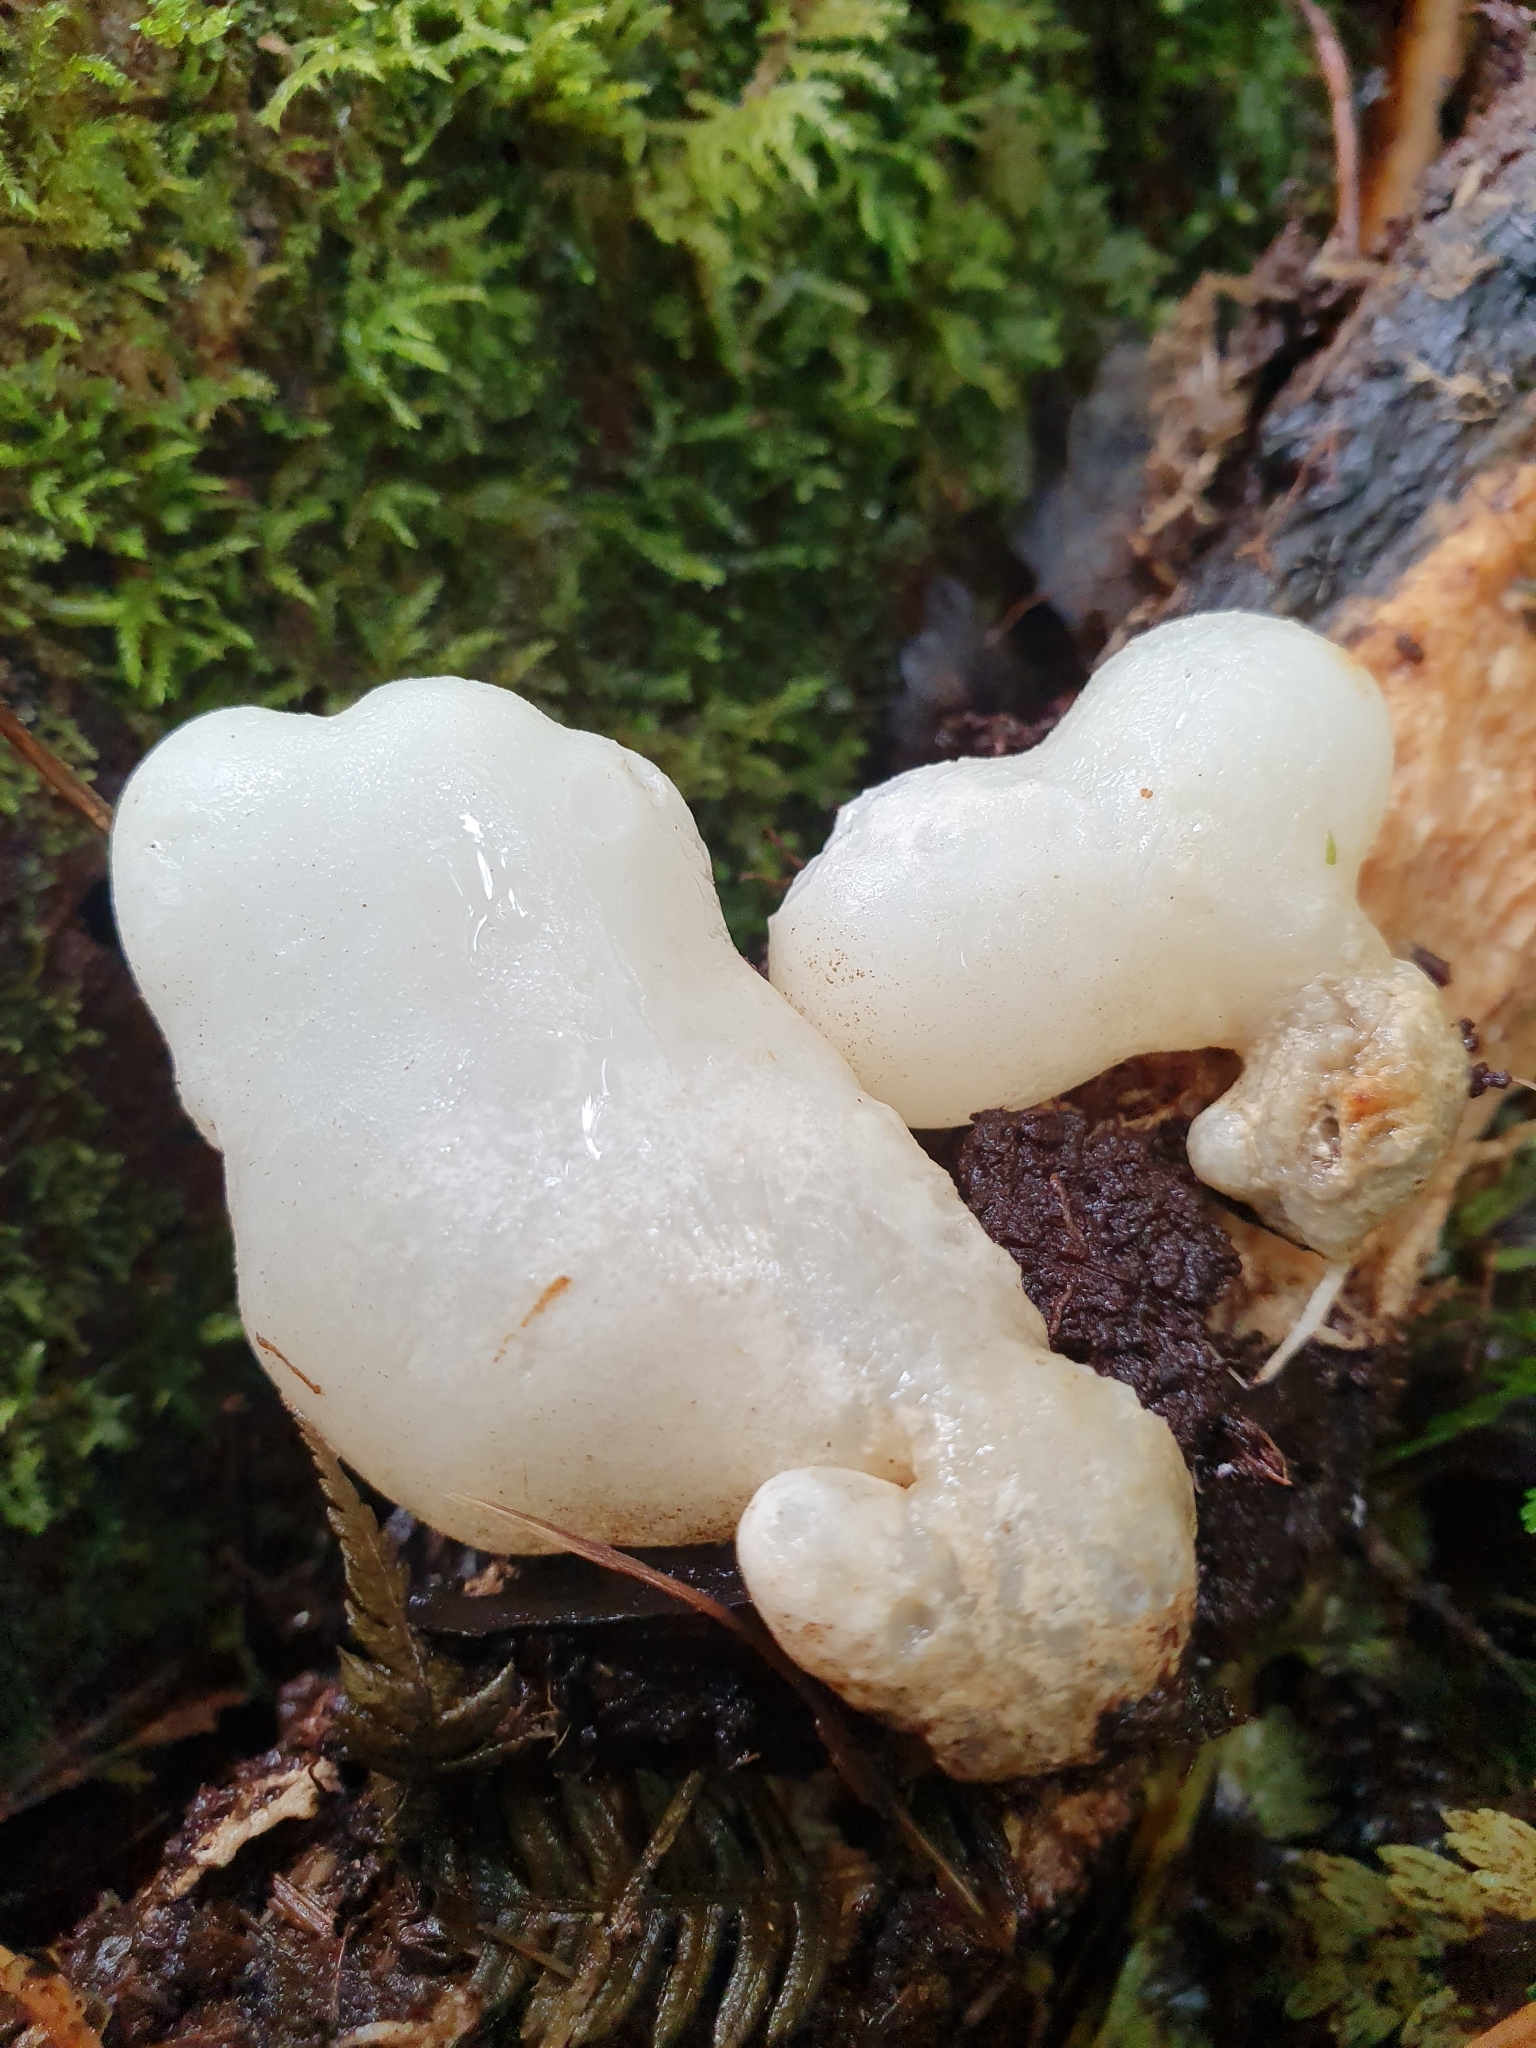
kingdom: Fungi
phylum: Basidiomycota
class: Agaricomycetes
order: Hysterangiales
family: Trappeaceae
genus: Phallobata
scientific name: Phallobata alba
